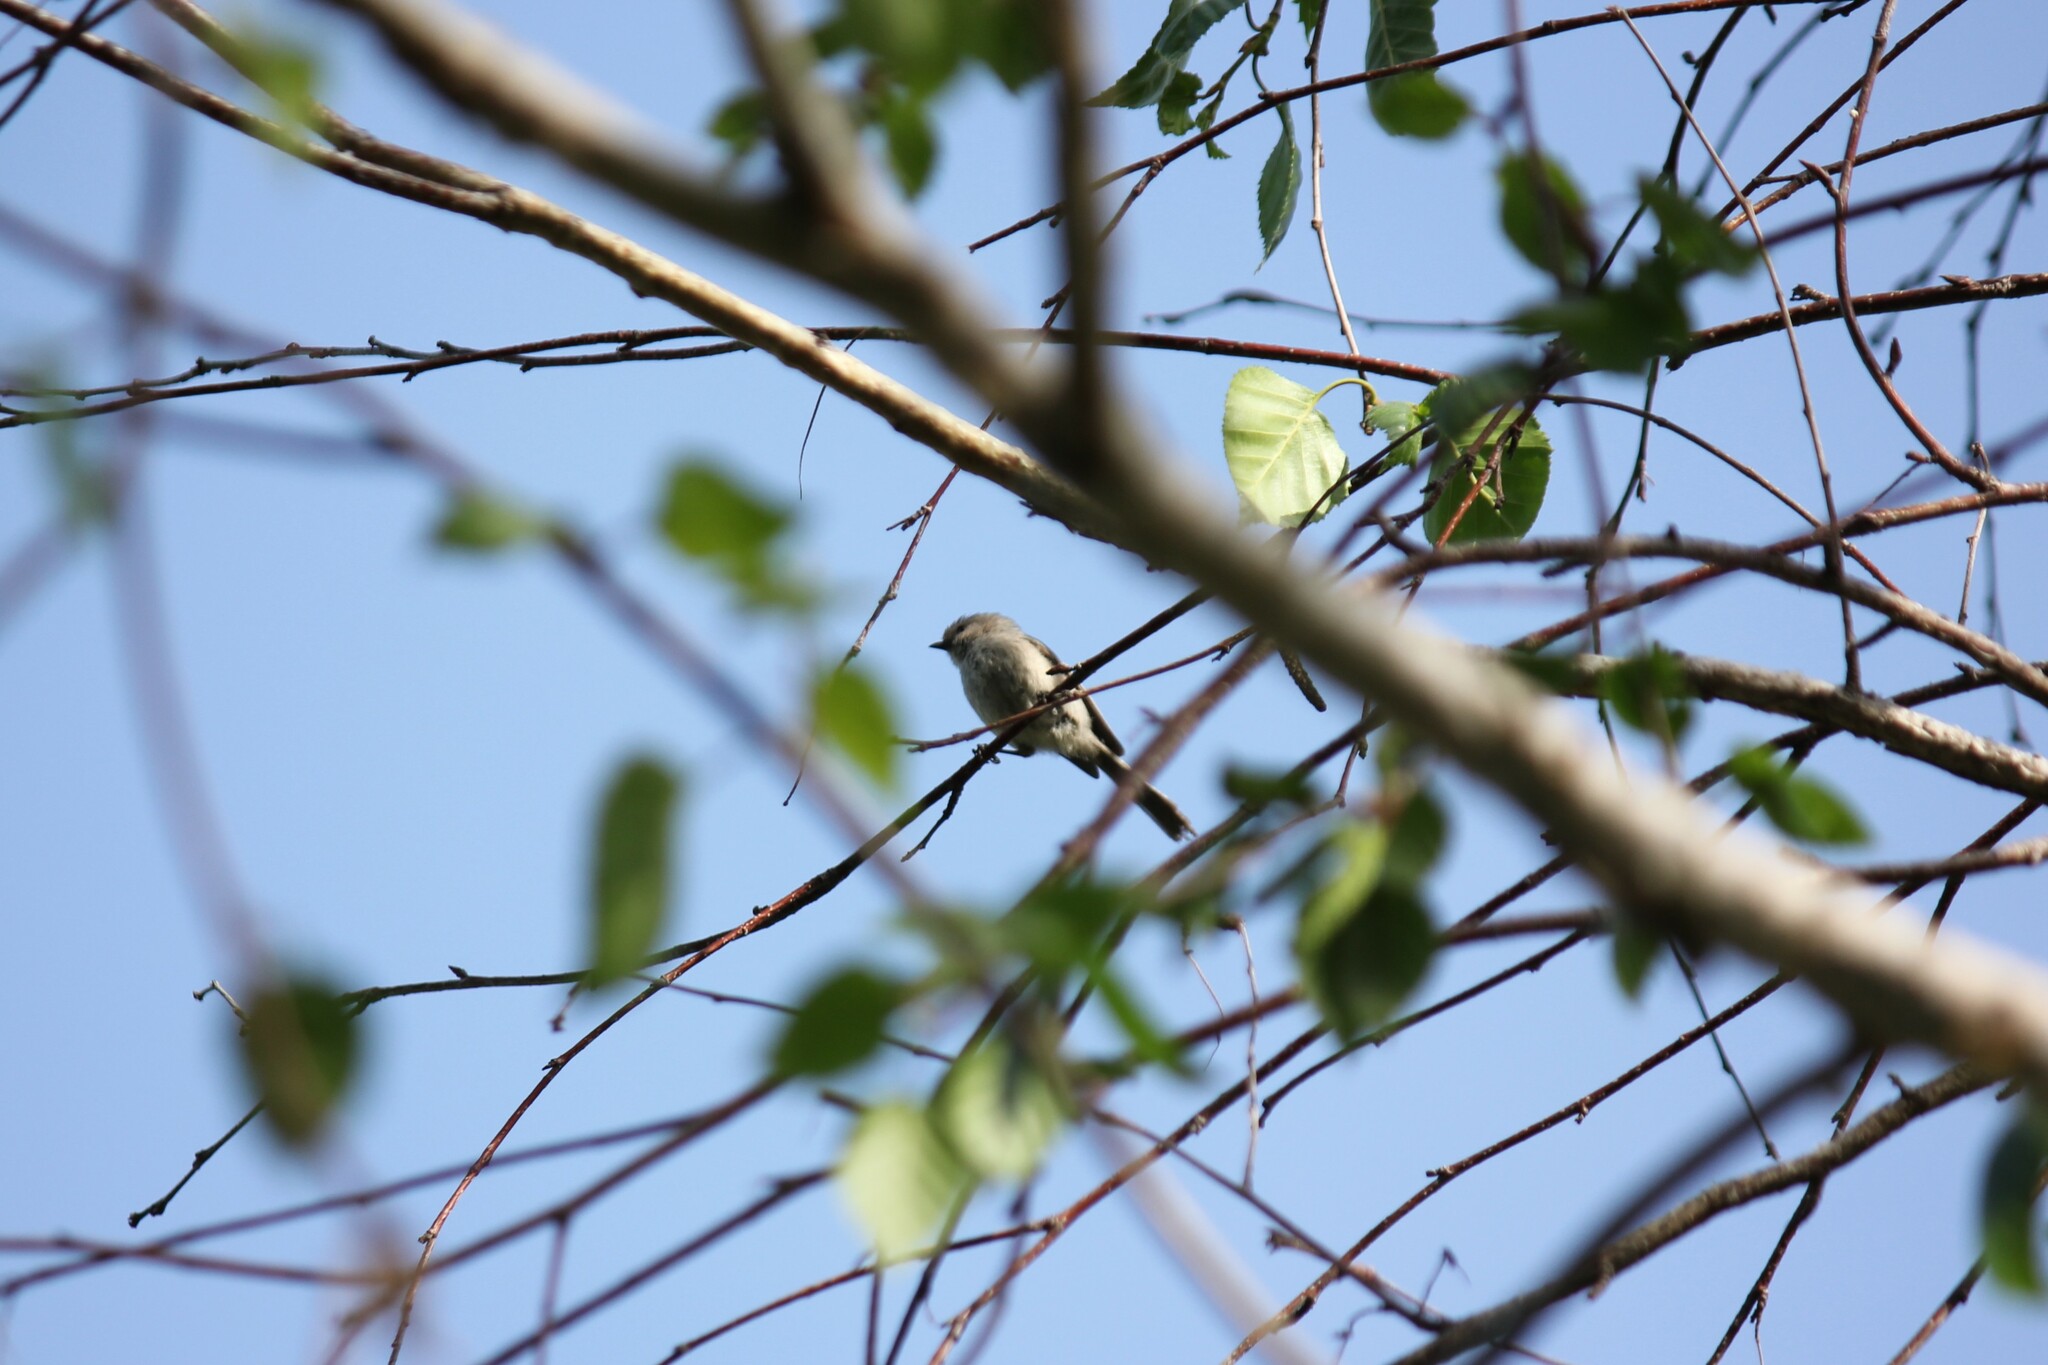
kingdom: Animalia
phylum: Chordata
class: Aves
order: Passeriformes
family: Aegithalidae
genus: Psaltriparus
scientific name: Psaltriparus minimus
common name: American bushtit
